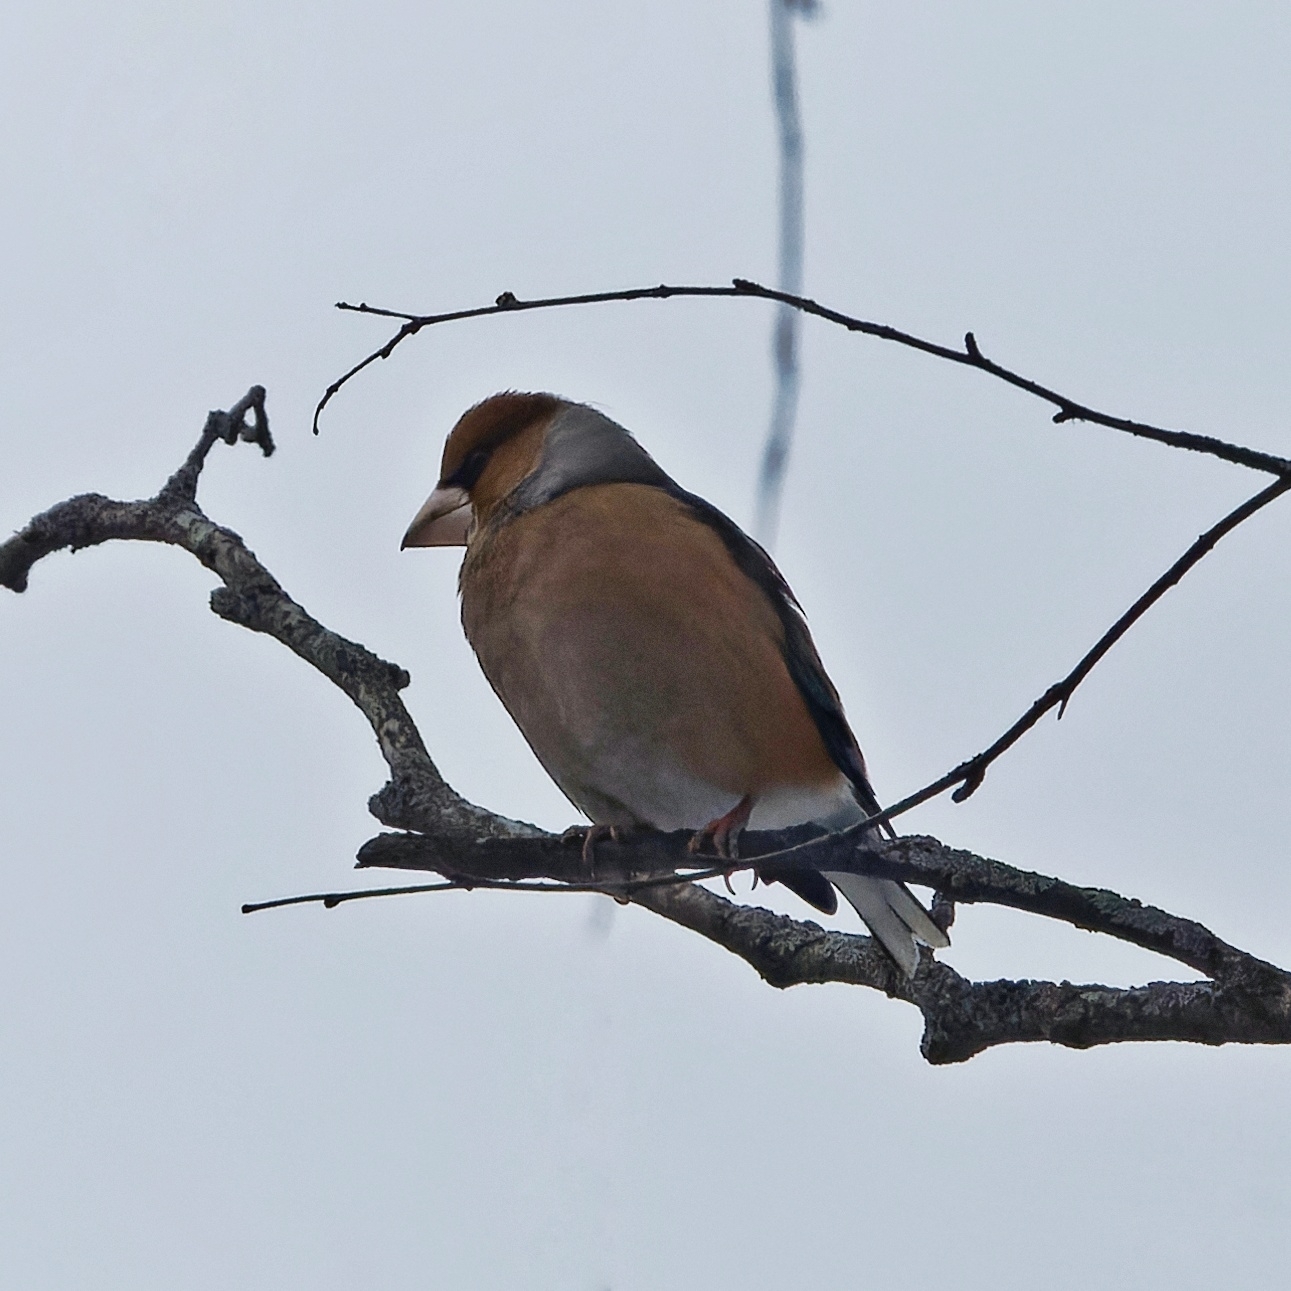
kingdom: Animalia
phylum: Chordata
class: Aves
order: Passeriformes
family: Fringillidae
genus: Coccothraustes
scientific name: Coccothraustes coccothraustes
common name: Hawfinch
